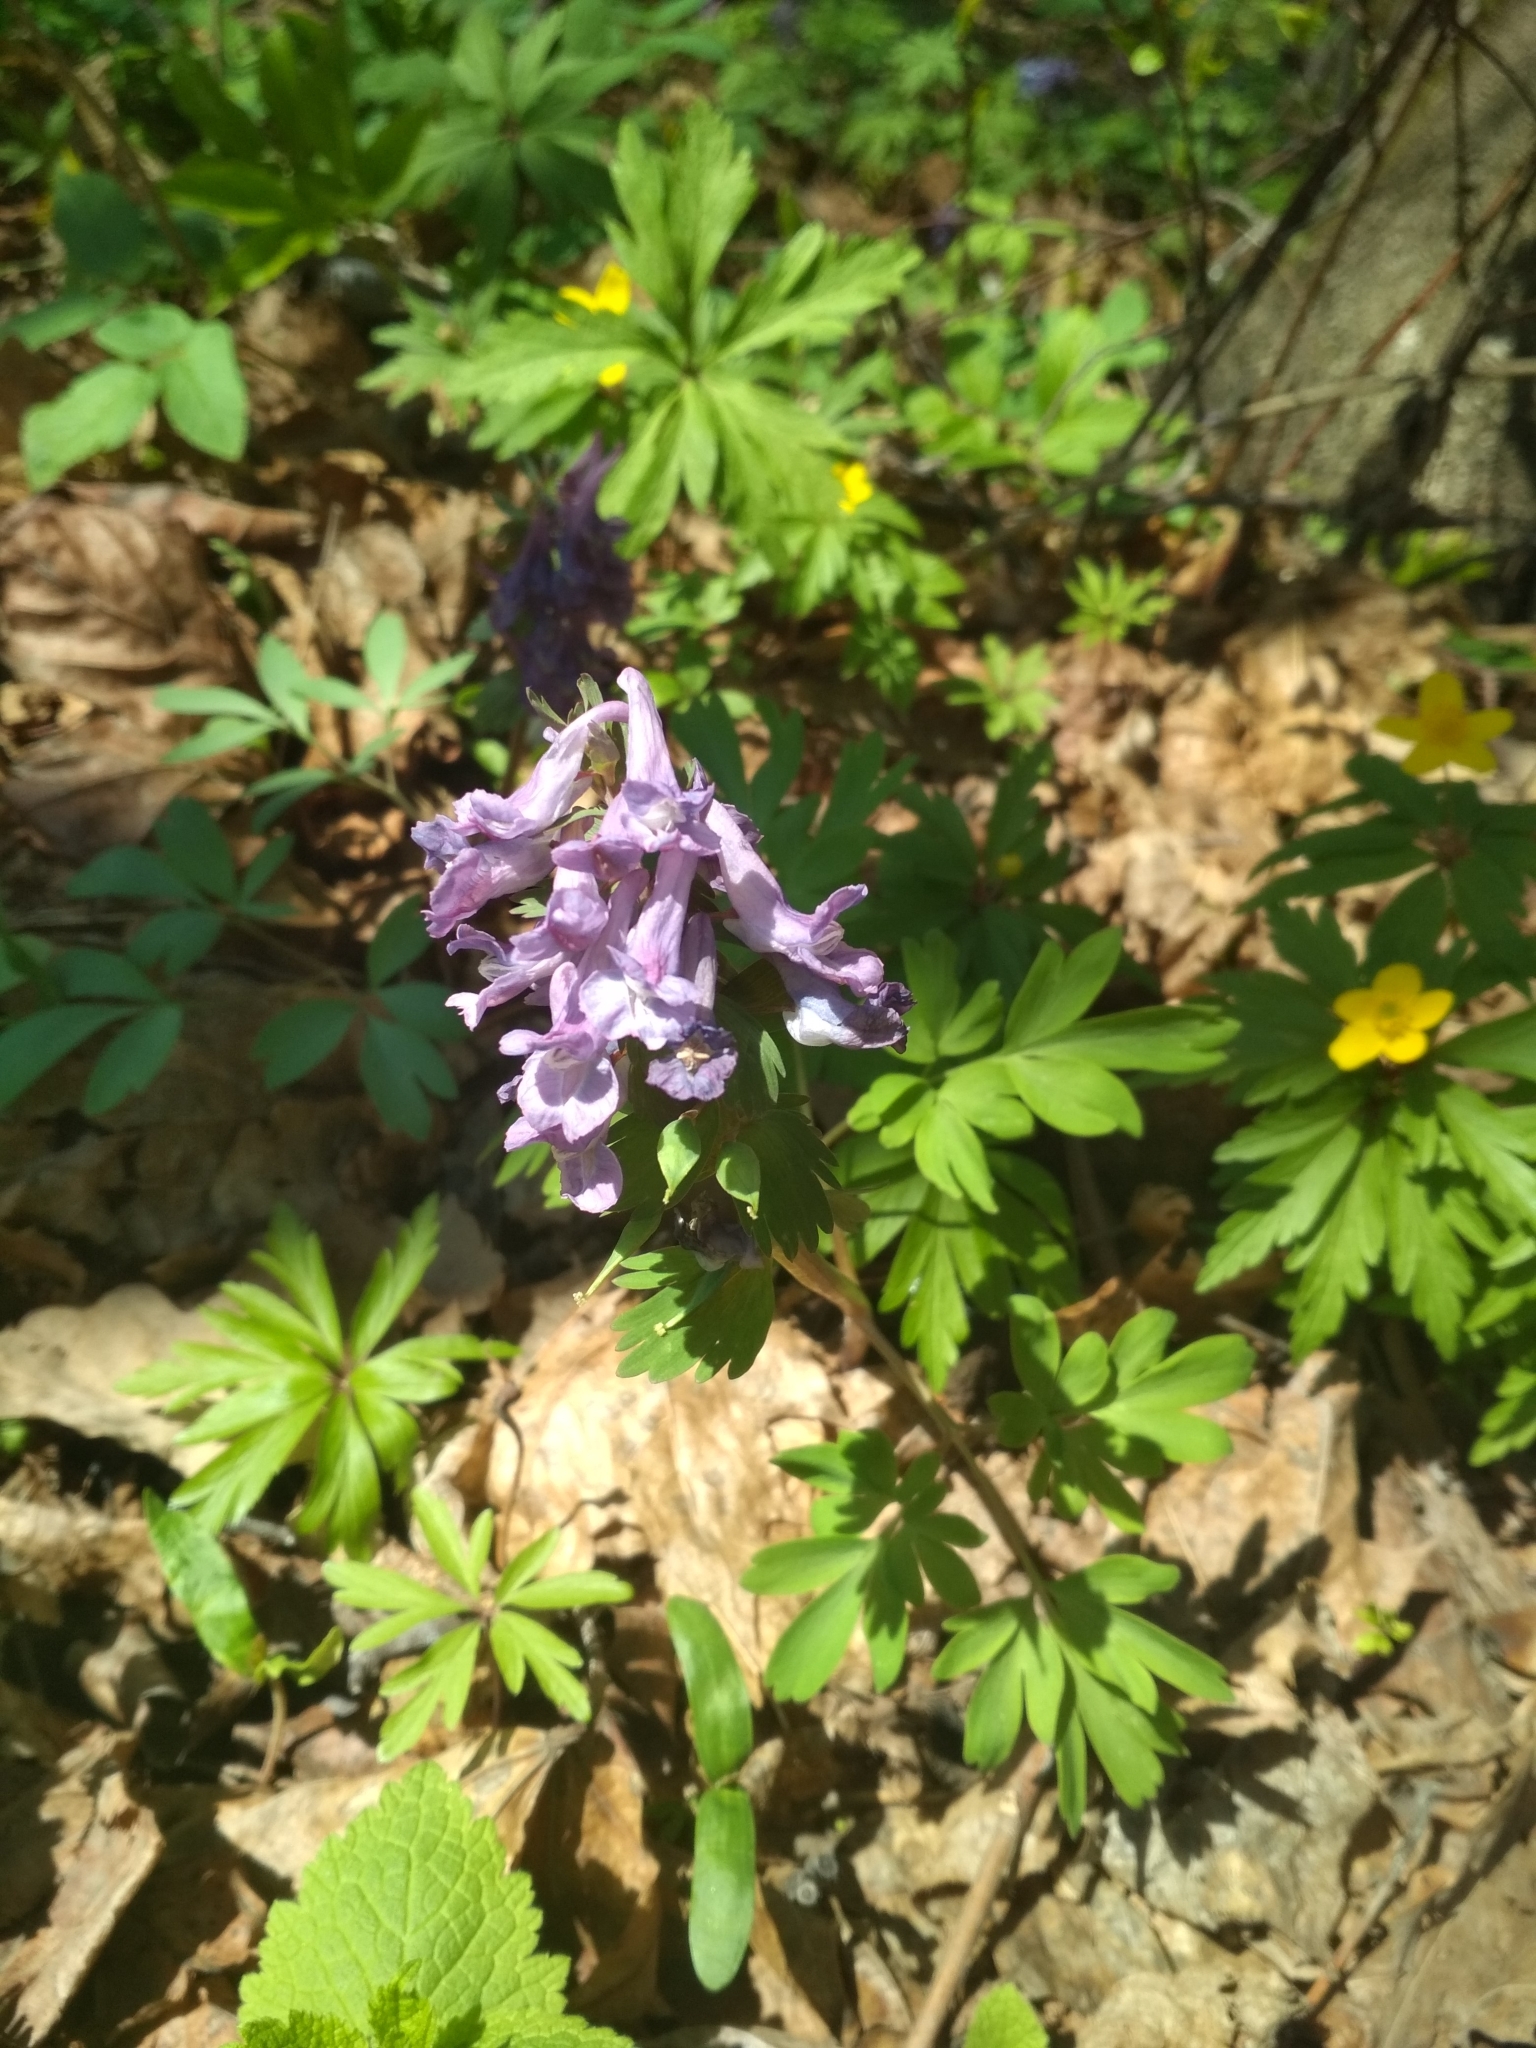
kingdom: Plantae
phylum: Tracheophyta
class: Magnoliopsida
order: Ranunculales
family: Papaveraceae
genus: Corydalis
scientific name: Corydalis solida
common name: Bird-in-a-bush
